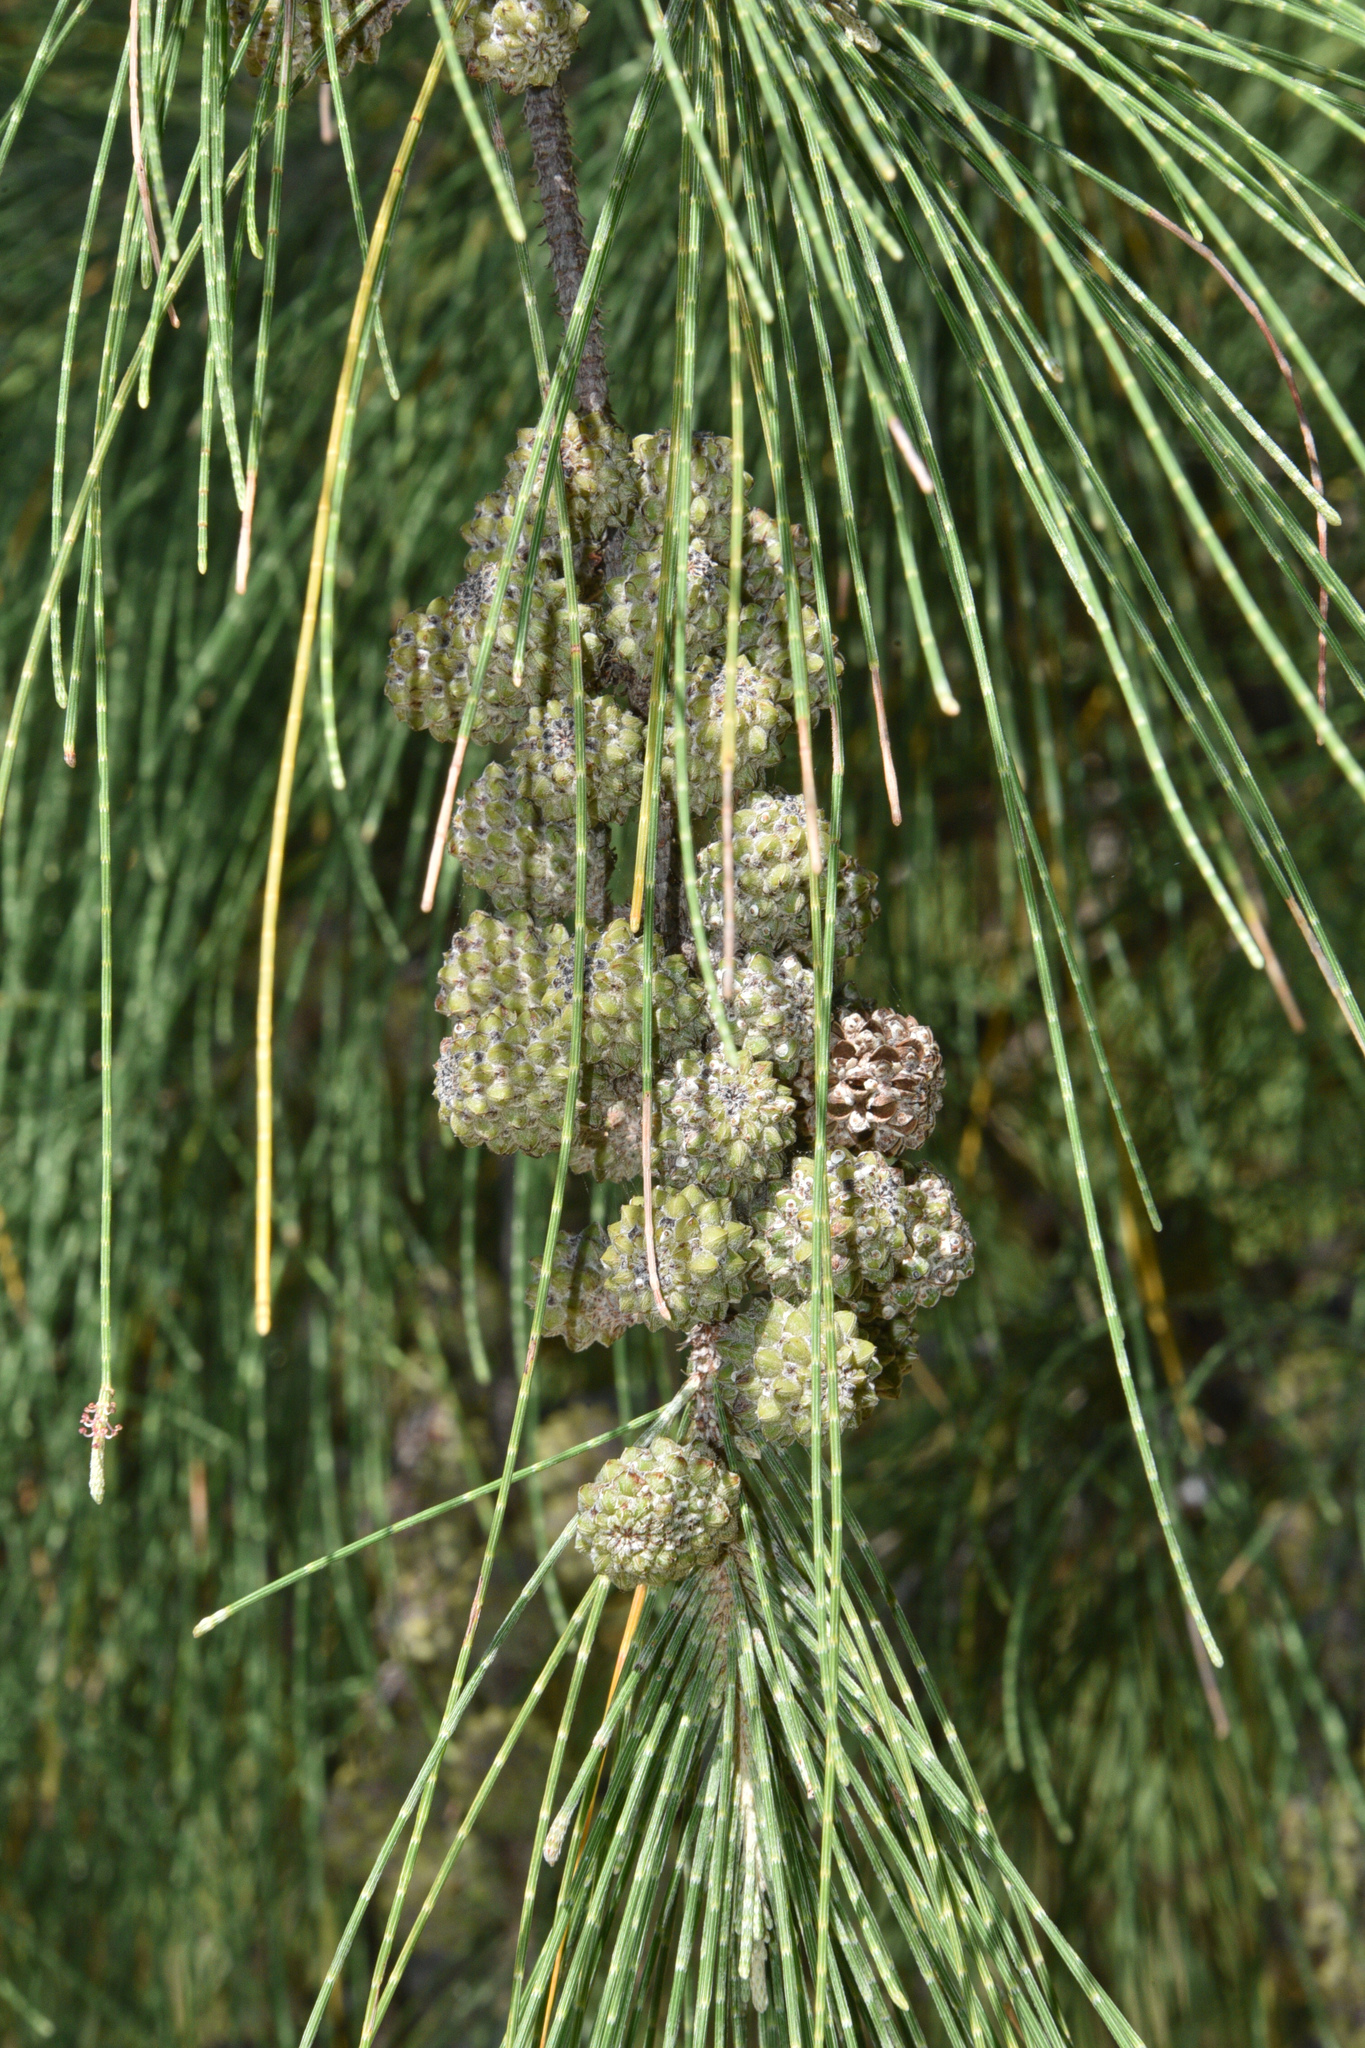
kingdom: Plantae
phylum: Tracheophyta
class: Magnoliopsida
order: Fagales
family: Casuarinaceae
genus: Casuarina
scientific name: Casuarina equisetifolia
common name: Beach sheoak
